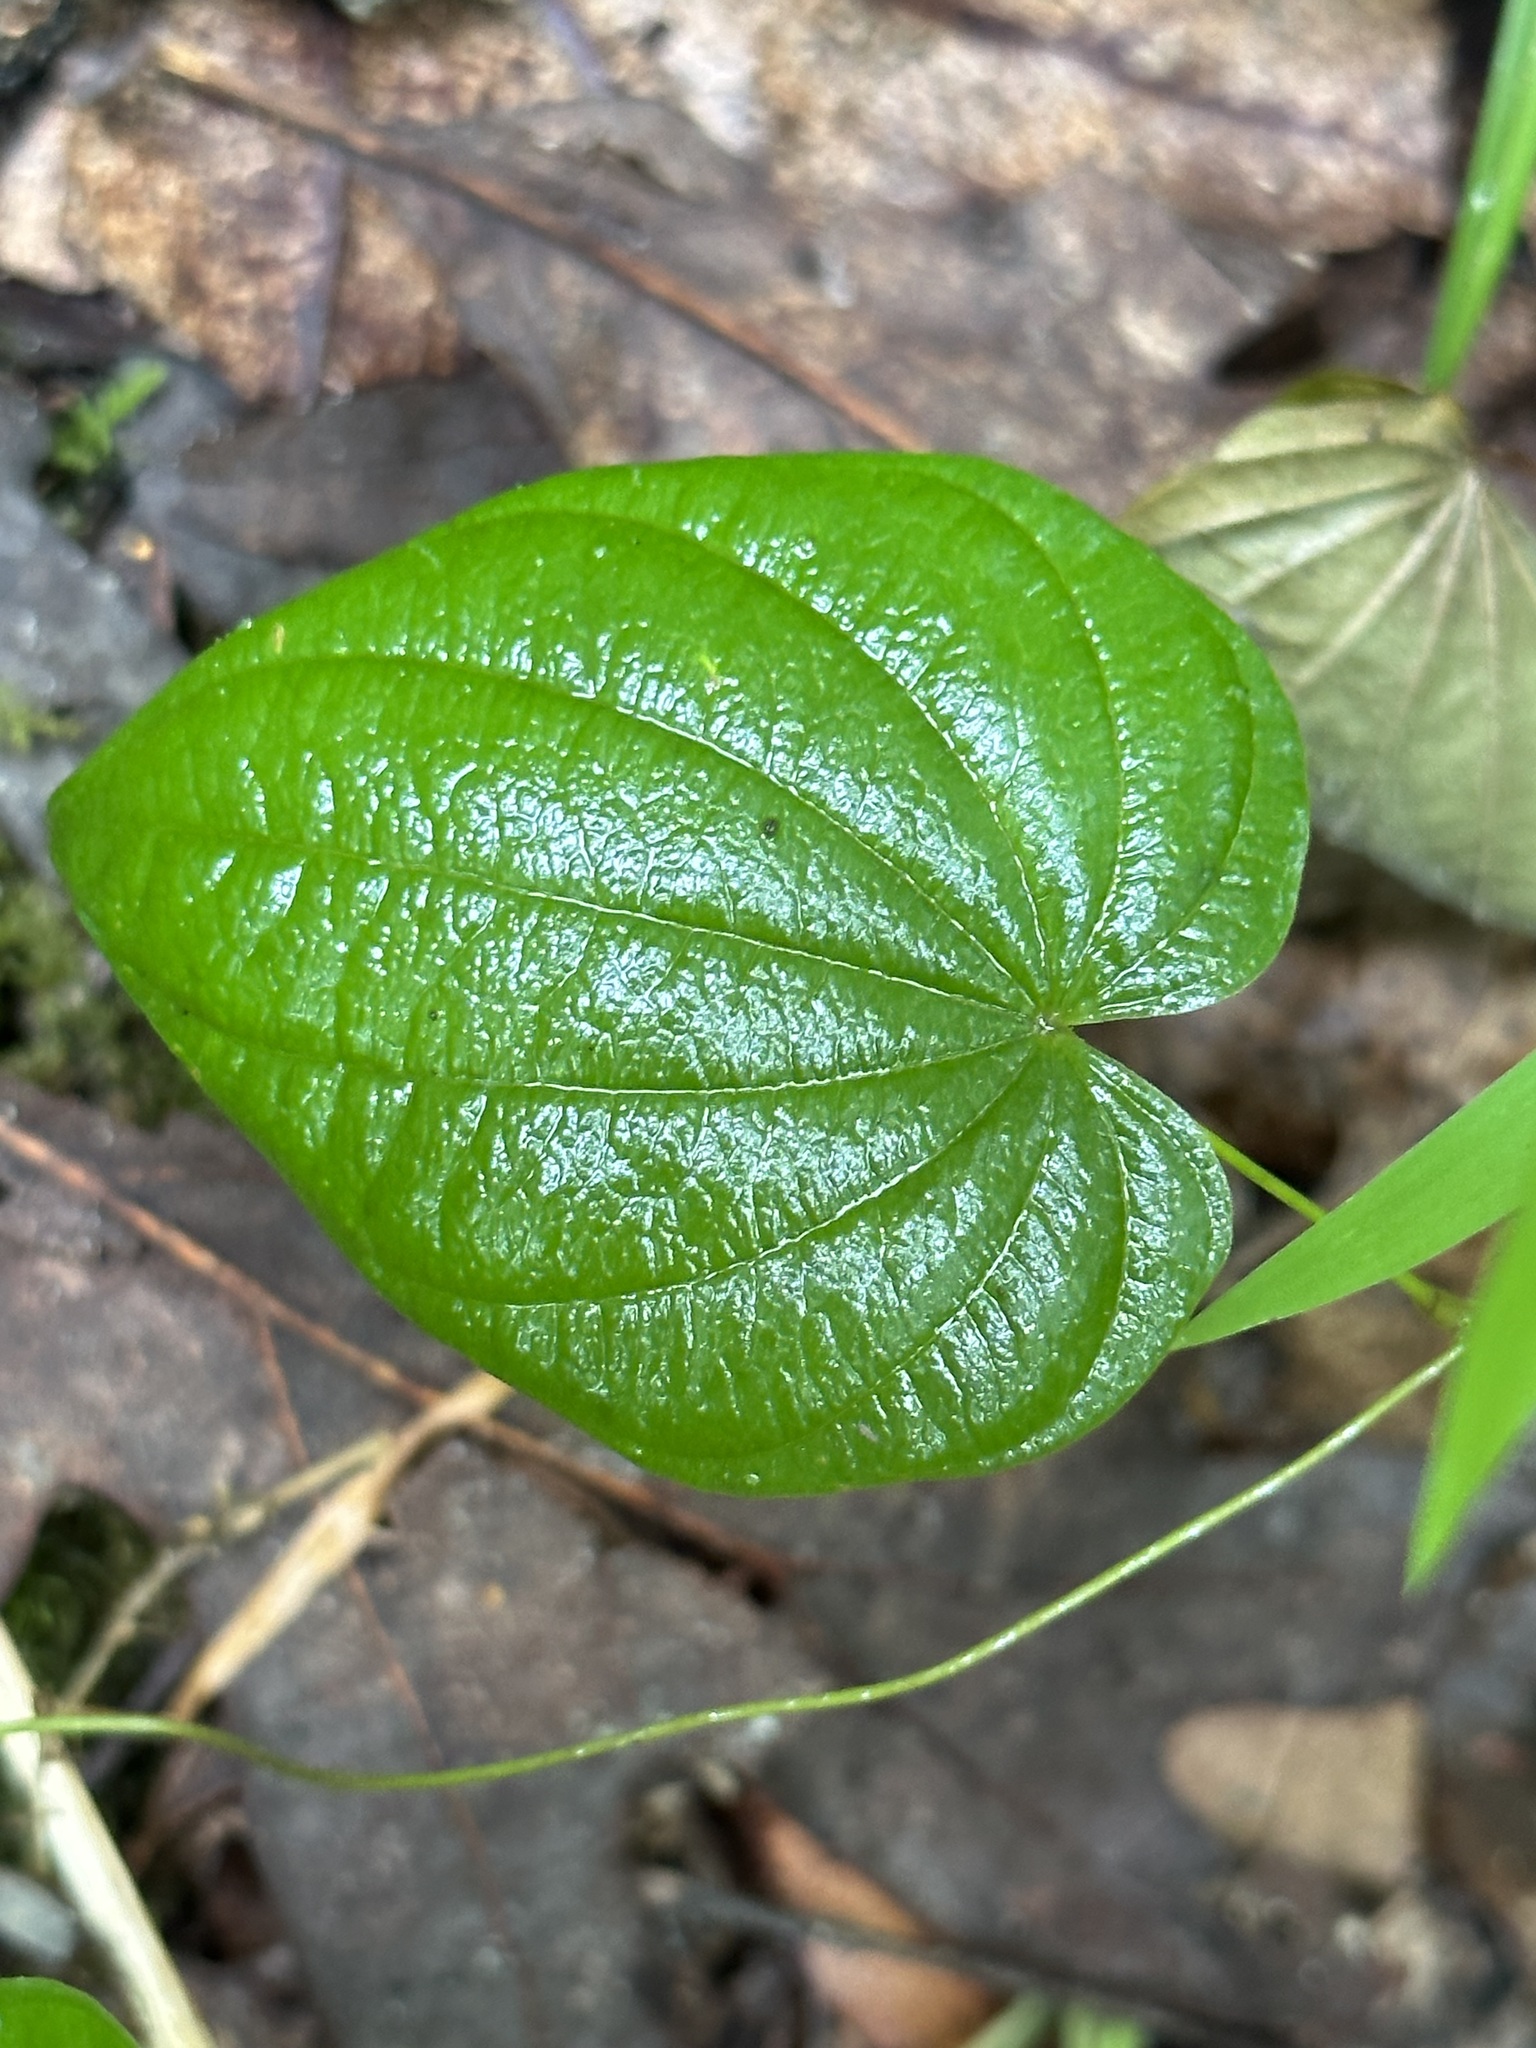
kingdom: Plantae
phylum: Tracheophyta
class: Liliopsida
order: Dioscoreales
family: Dioscoreaceae
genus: Dioscorea
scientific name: Dioscorea villosa
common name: Wild yam
